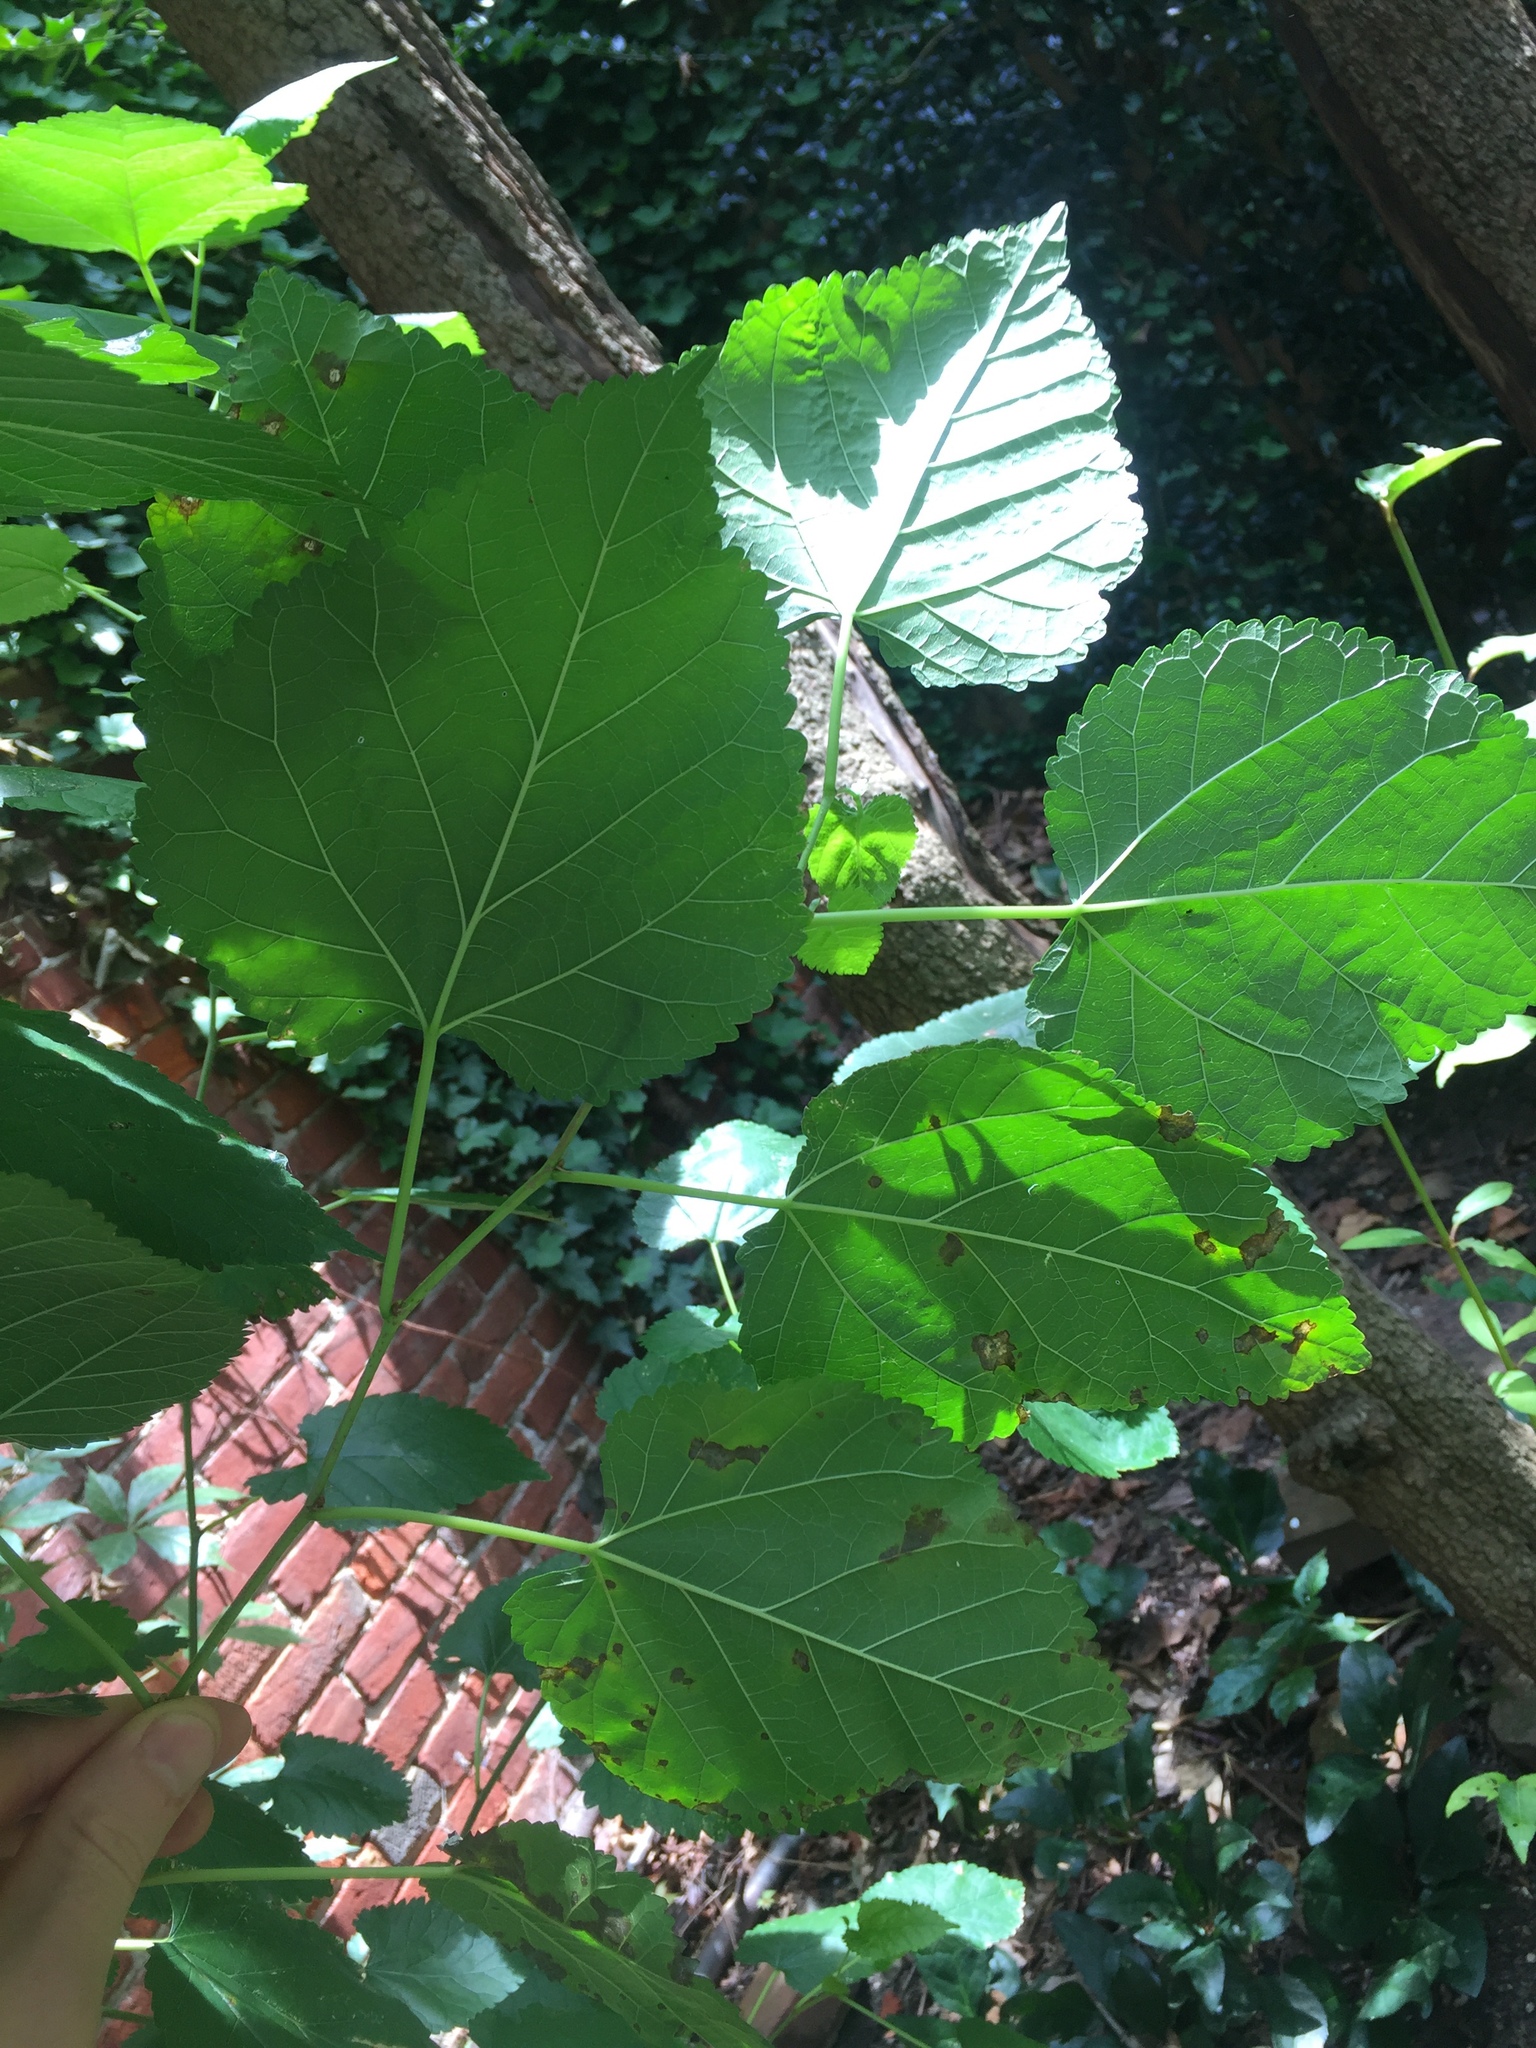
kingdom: Plantae
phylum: Tracheophyta
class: Magnoliopsida
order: Rosales
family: Moraceae
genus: Morus
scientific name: Morus alba
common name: White mulberry
